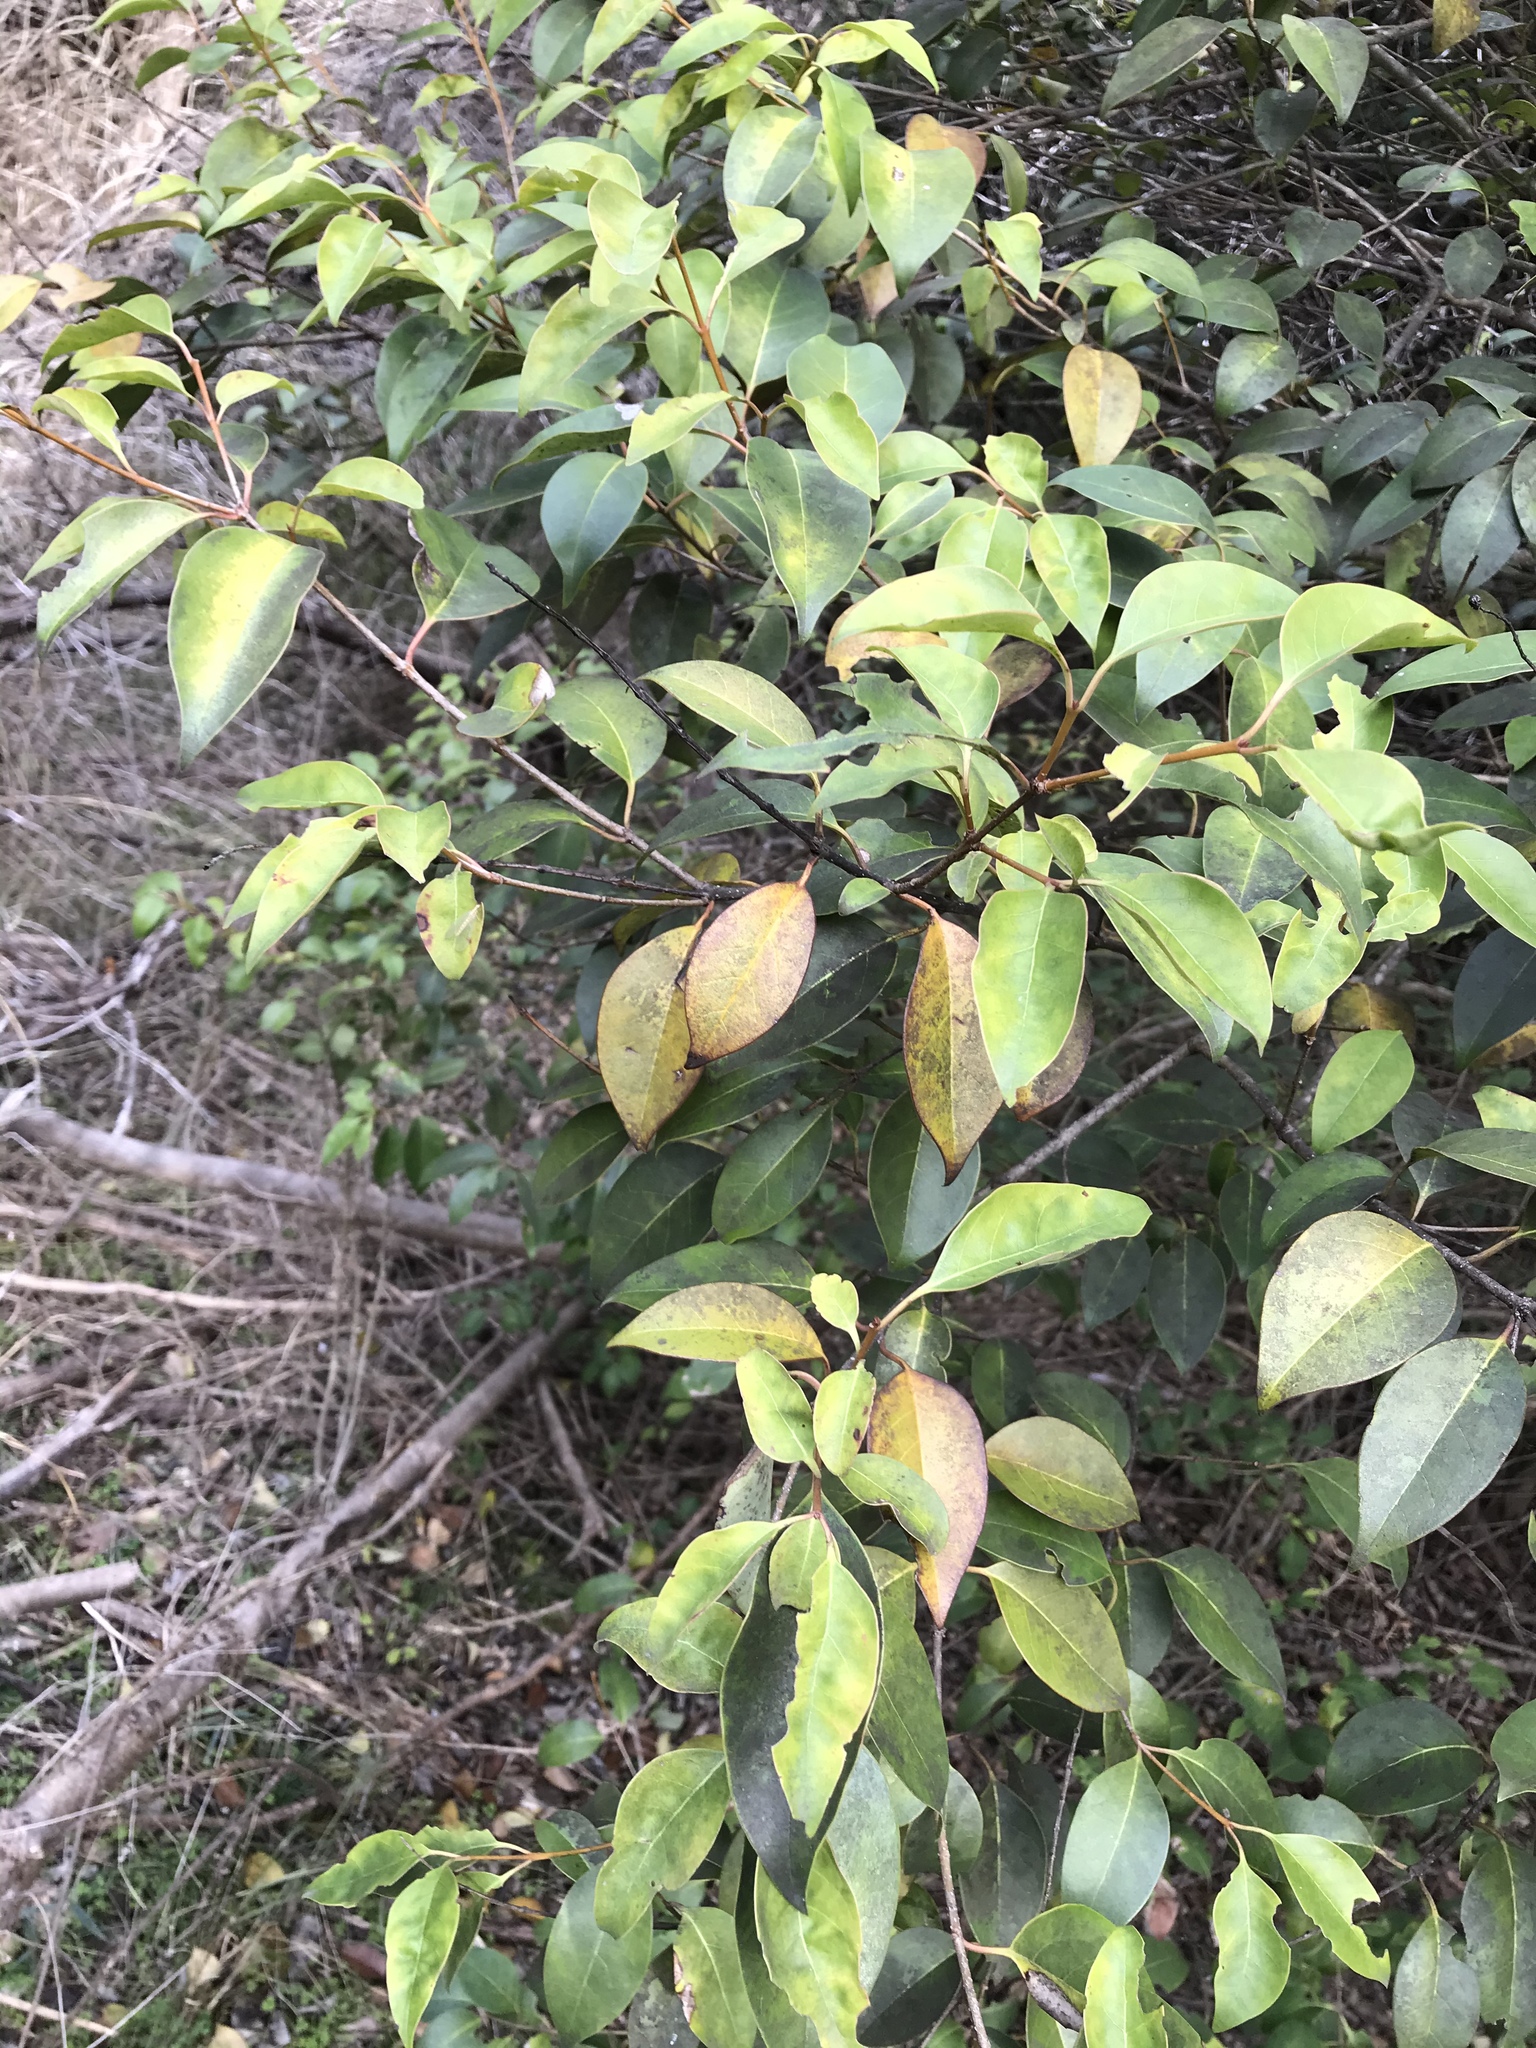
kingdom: Plantae
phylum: Tracheophyta
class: Magnoliopsida
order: Lamiales
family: Oleaceae
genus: Ligustrum
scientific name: Ligustrum lucidum
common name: Glossy privet
